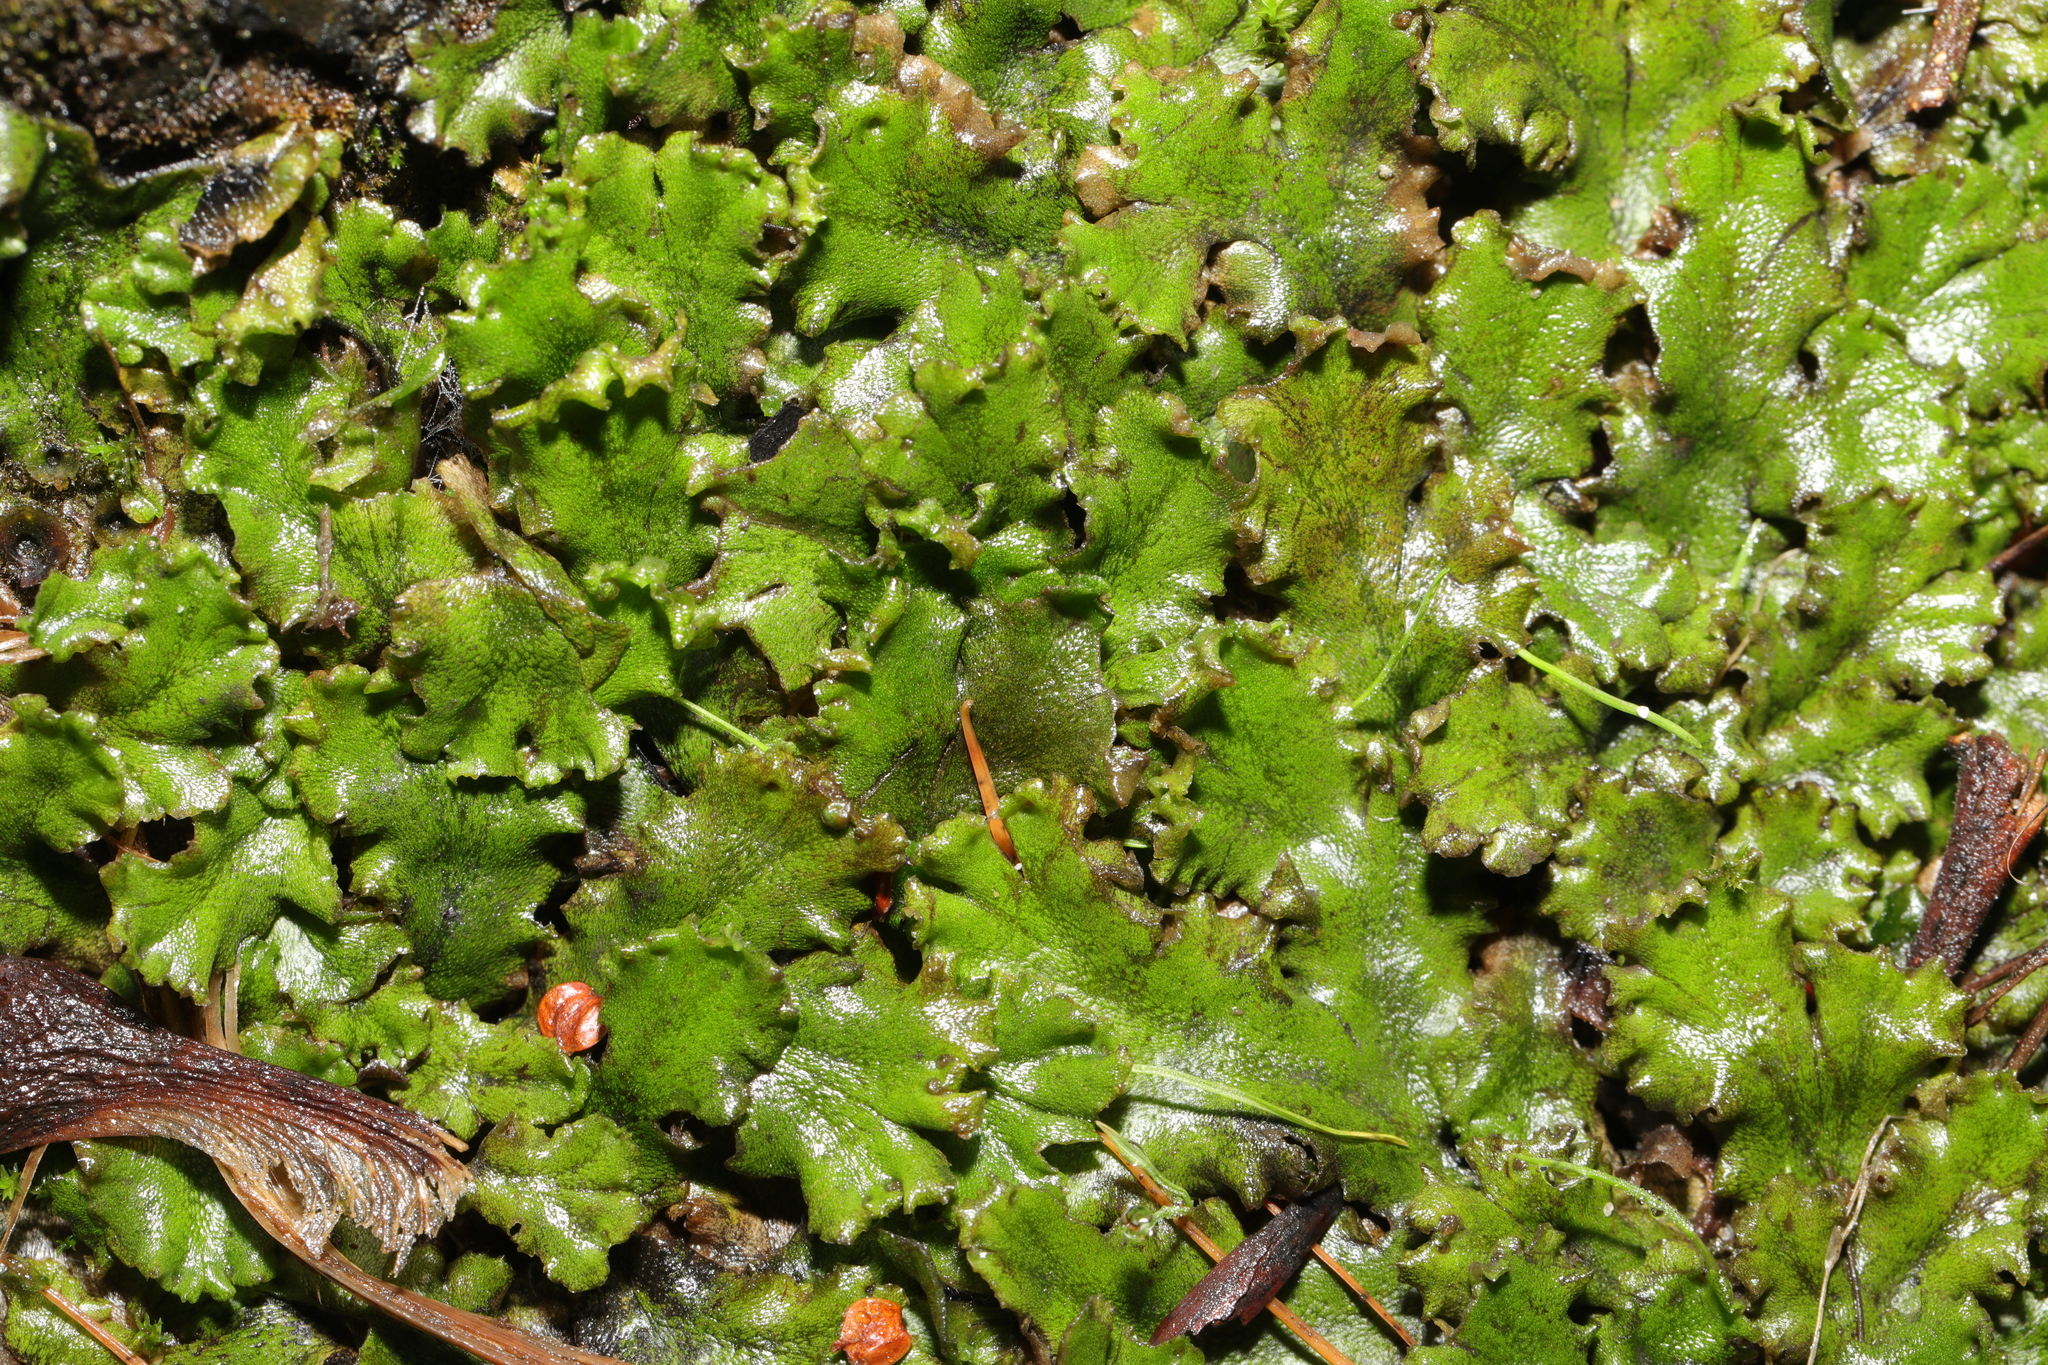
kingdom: Plantae
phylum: Marchantiophyta
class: Marchantiopsida
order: Marchantiales
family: Marchantiaceae
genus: Marchantia
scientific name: Marchantia polymorpha
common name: Common liverwort
